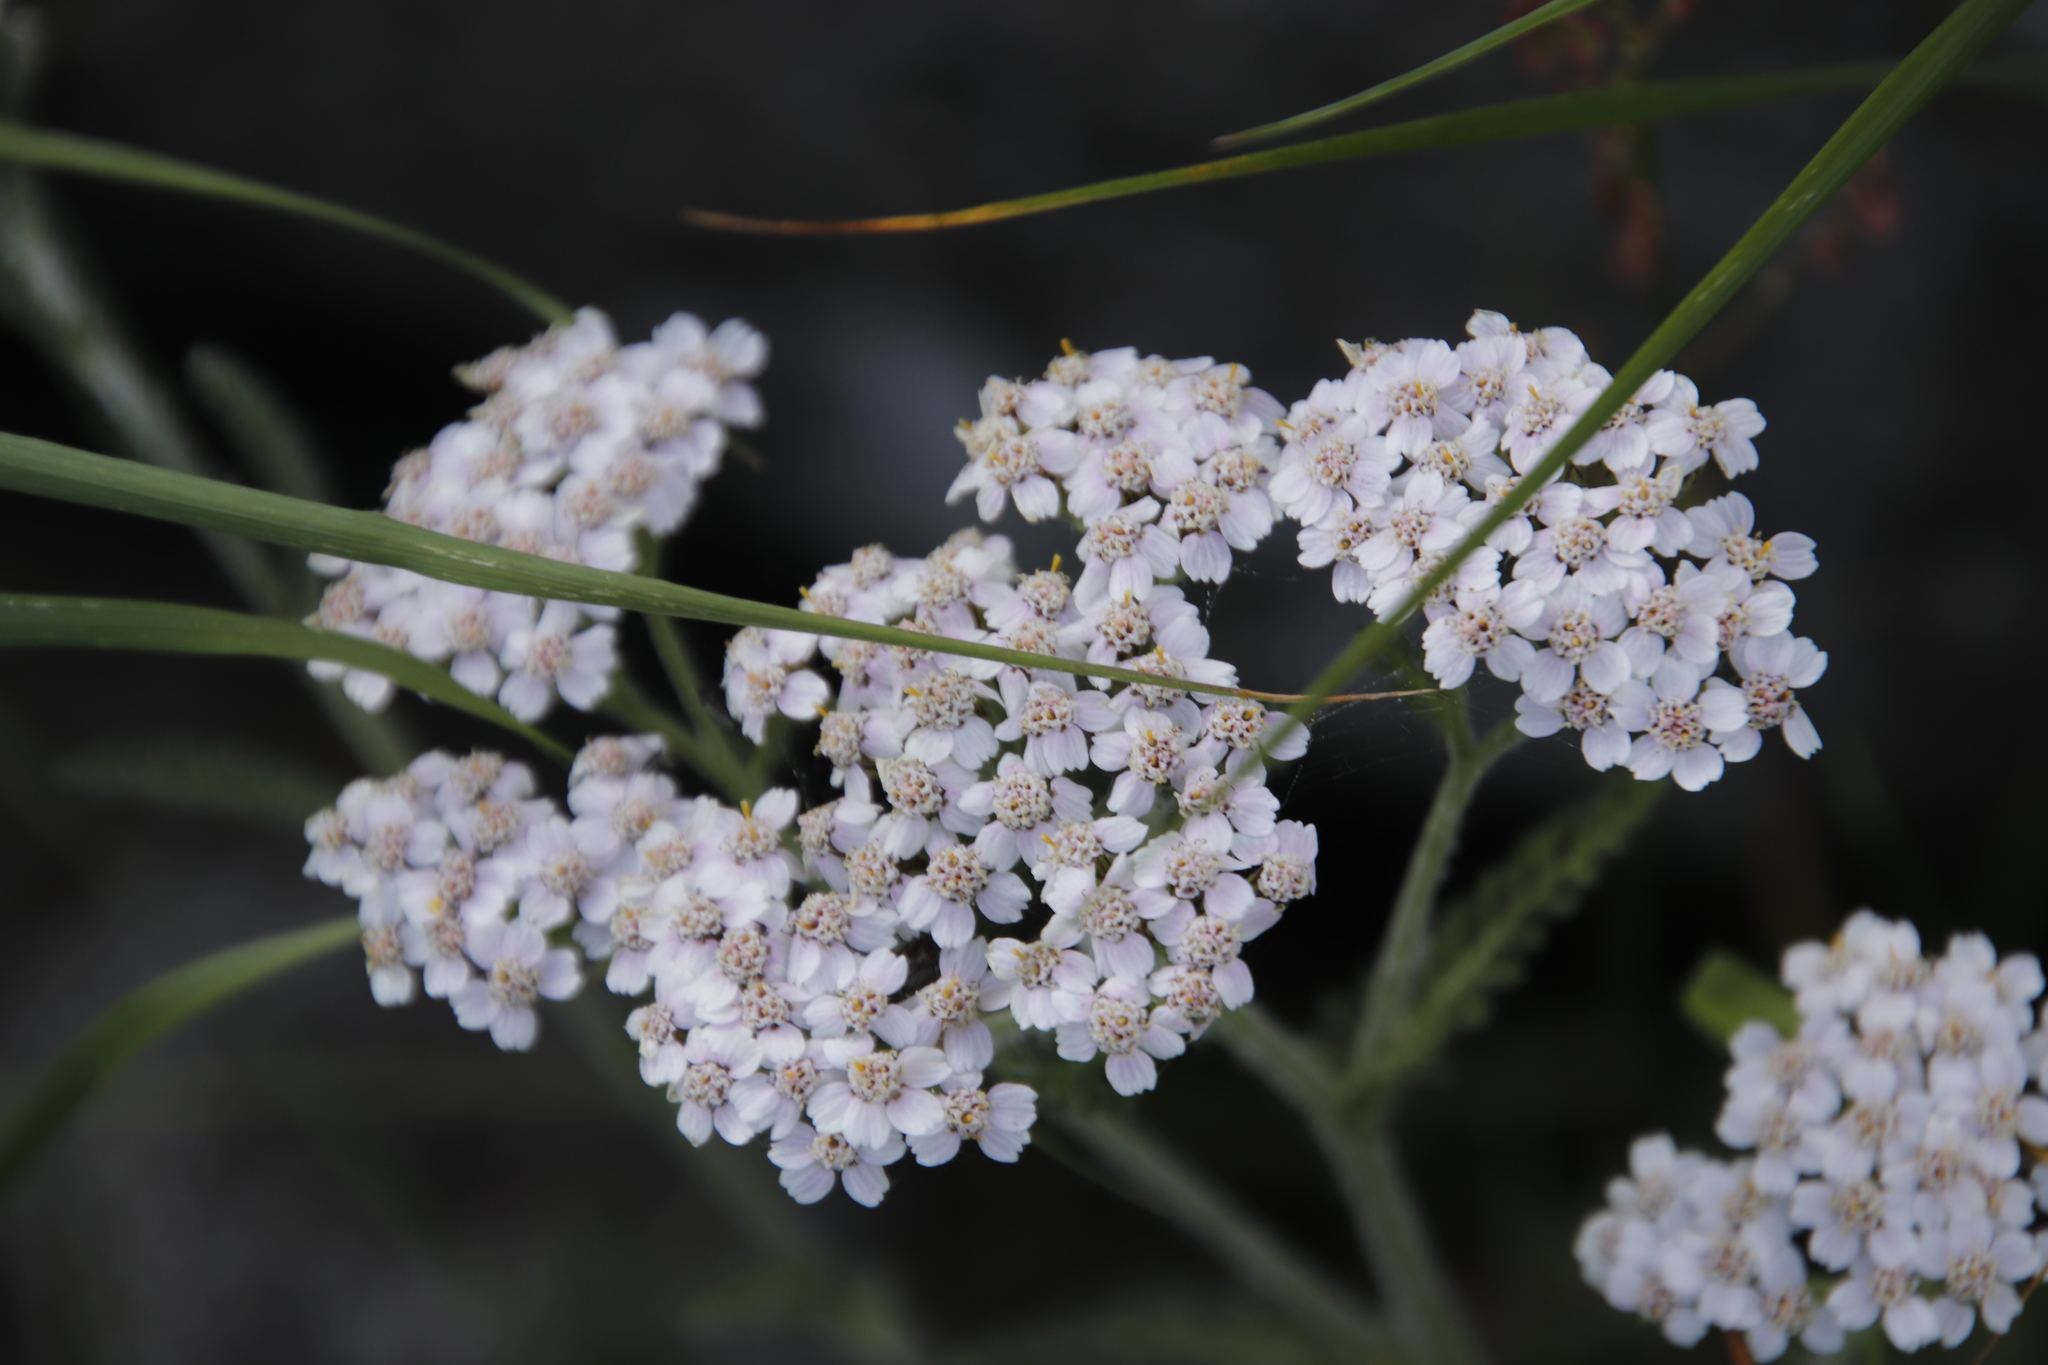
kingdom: Plantae
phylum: Tracheophyta
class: Magnoliopsida
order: Asterales
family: Asteraceae
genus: Achillea
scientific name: Achillea millefolium
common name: Yarrow
